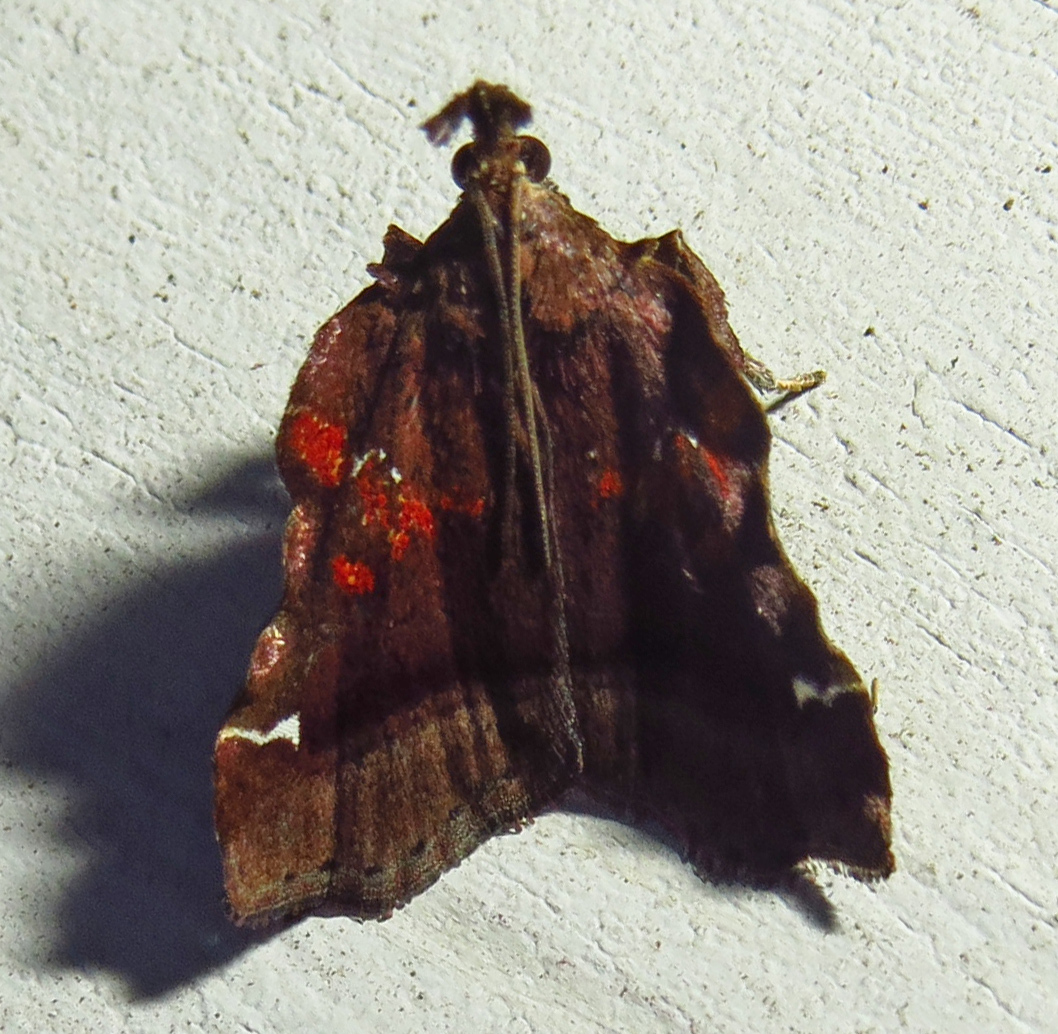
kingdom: Animalia
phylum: Arthropoda
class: Insecta
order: Lepidoptera
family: Pyralidae
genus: Clydonopteron
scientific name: Clydonopteron sacculana
